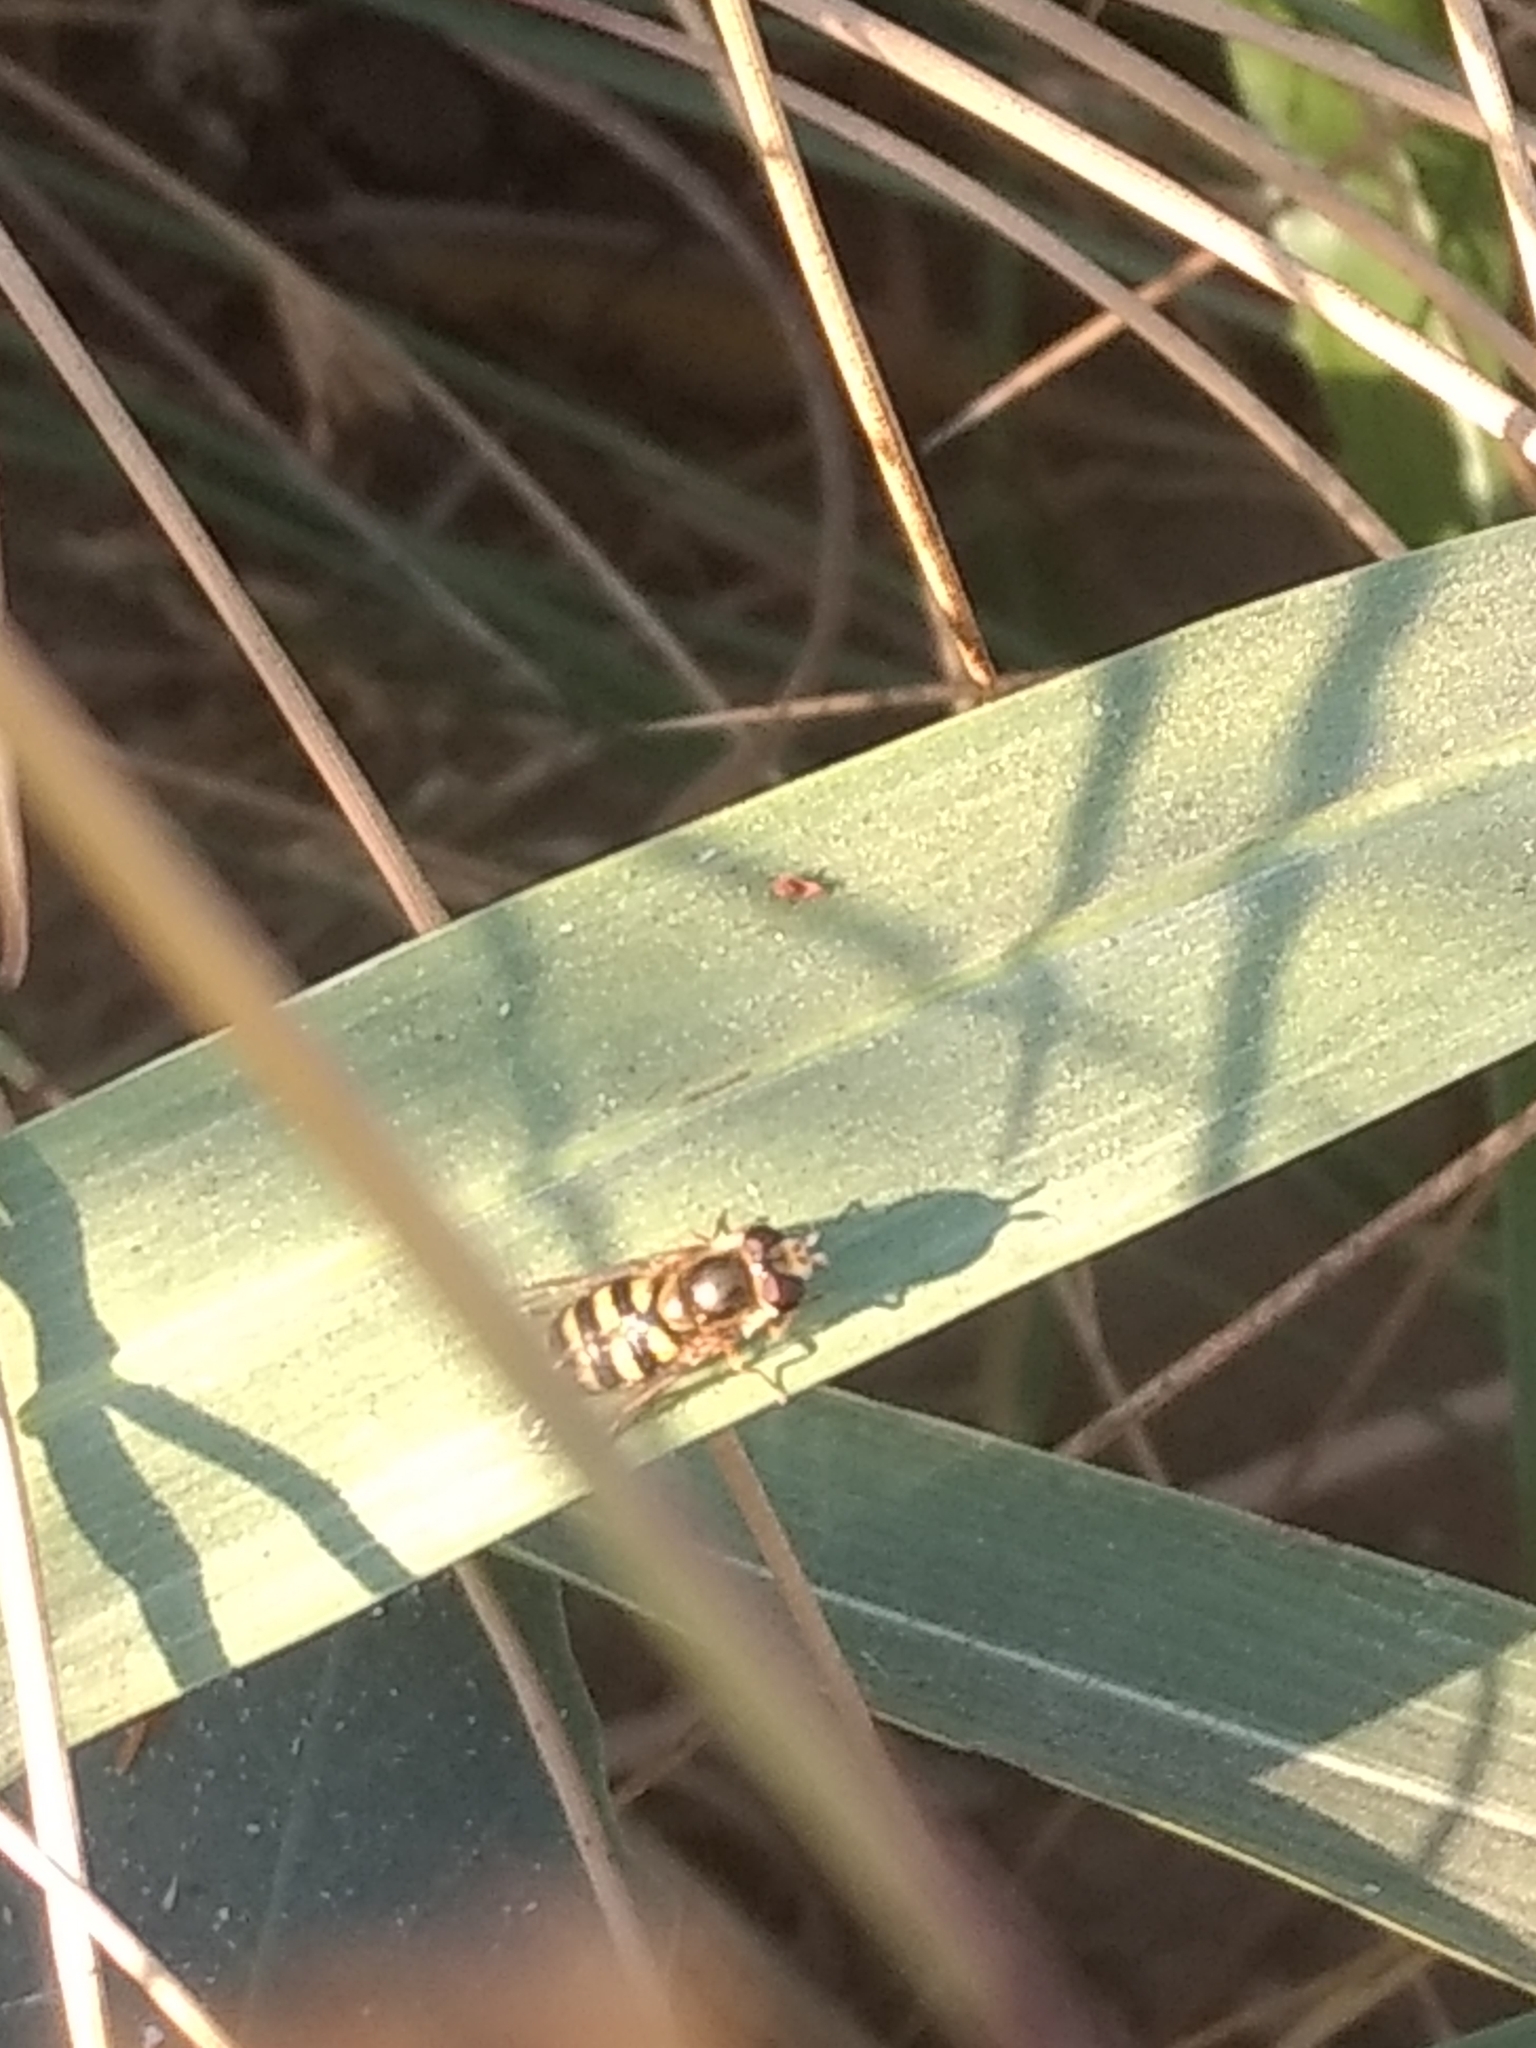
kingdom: Animalia
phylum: Arthropoda
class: Insecta
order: Diptera
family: Syrphidae
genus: Eupeodes
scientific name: Eupeodes fumipennis
